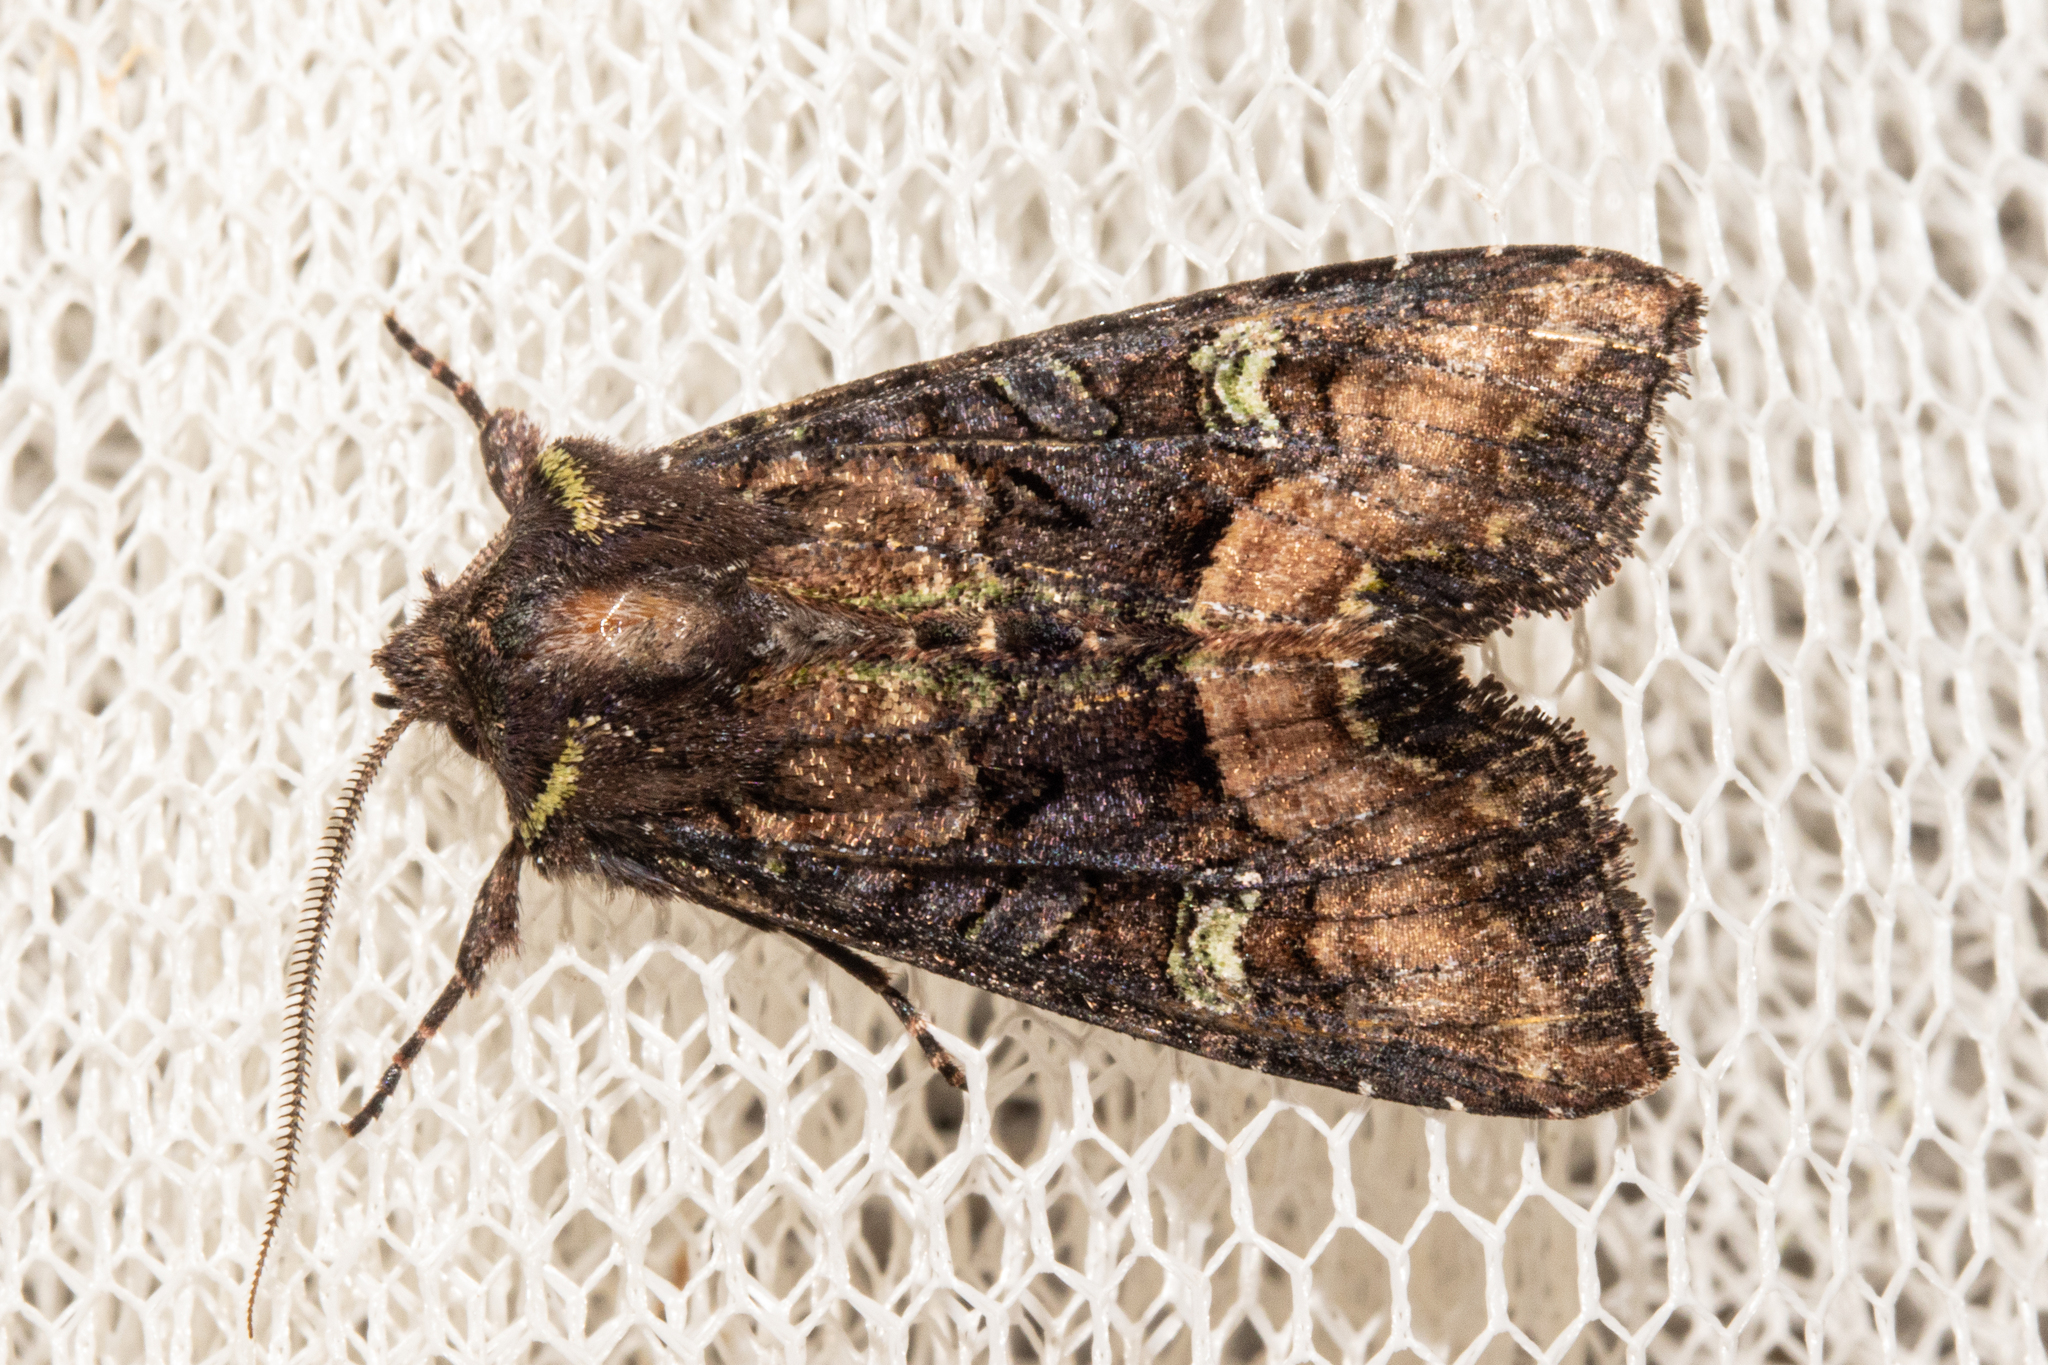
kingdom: Animalia
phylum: Arthropoda
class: Insecta
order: Lepidoptera
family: Noctuidae
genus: Meterana
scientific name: Meterana asterope
